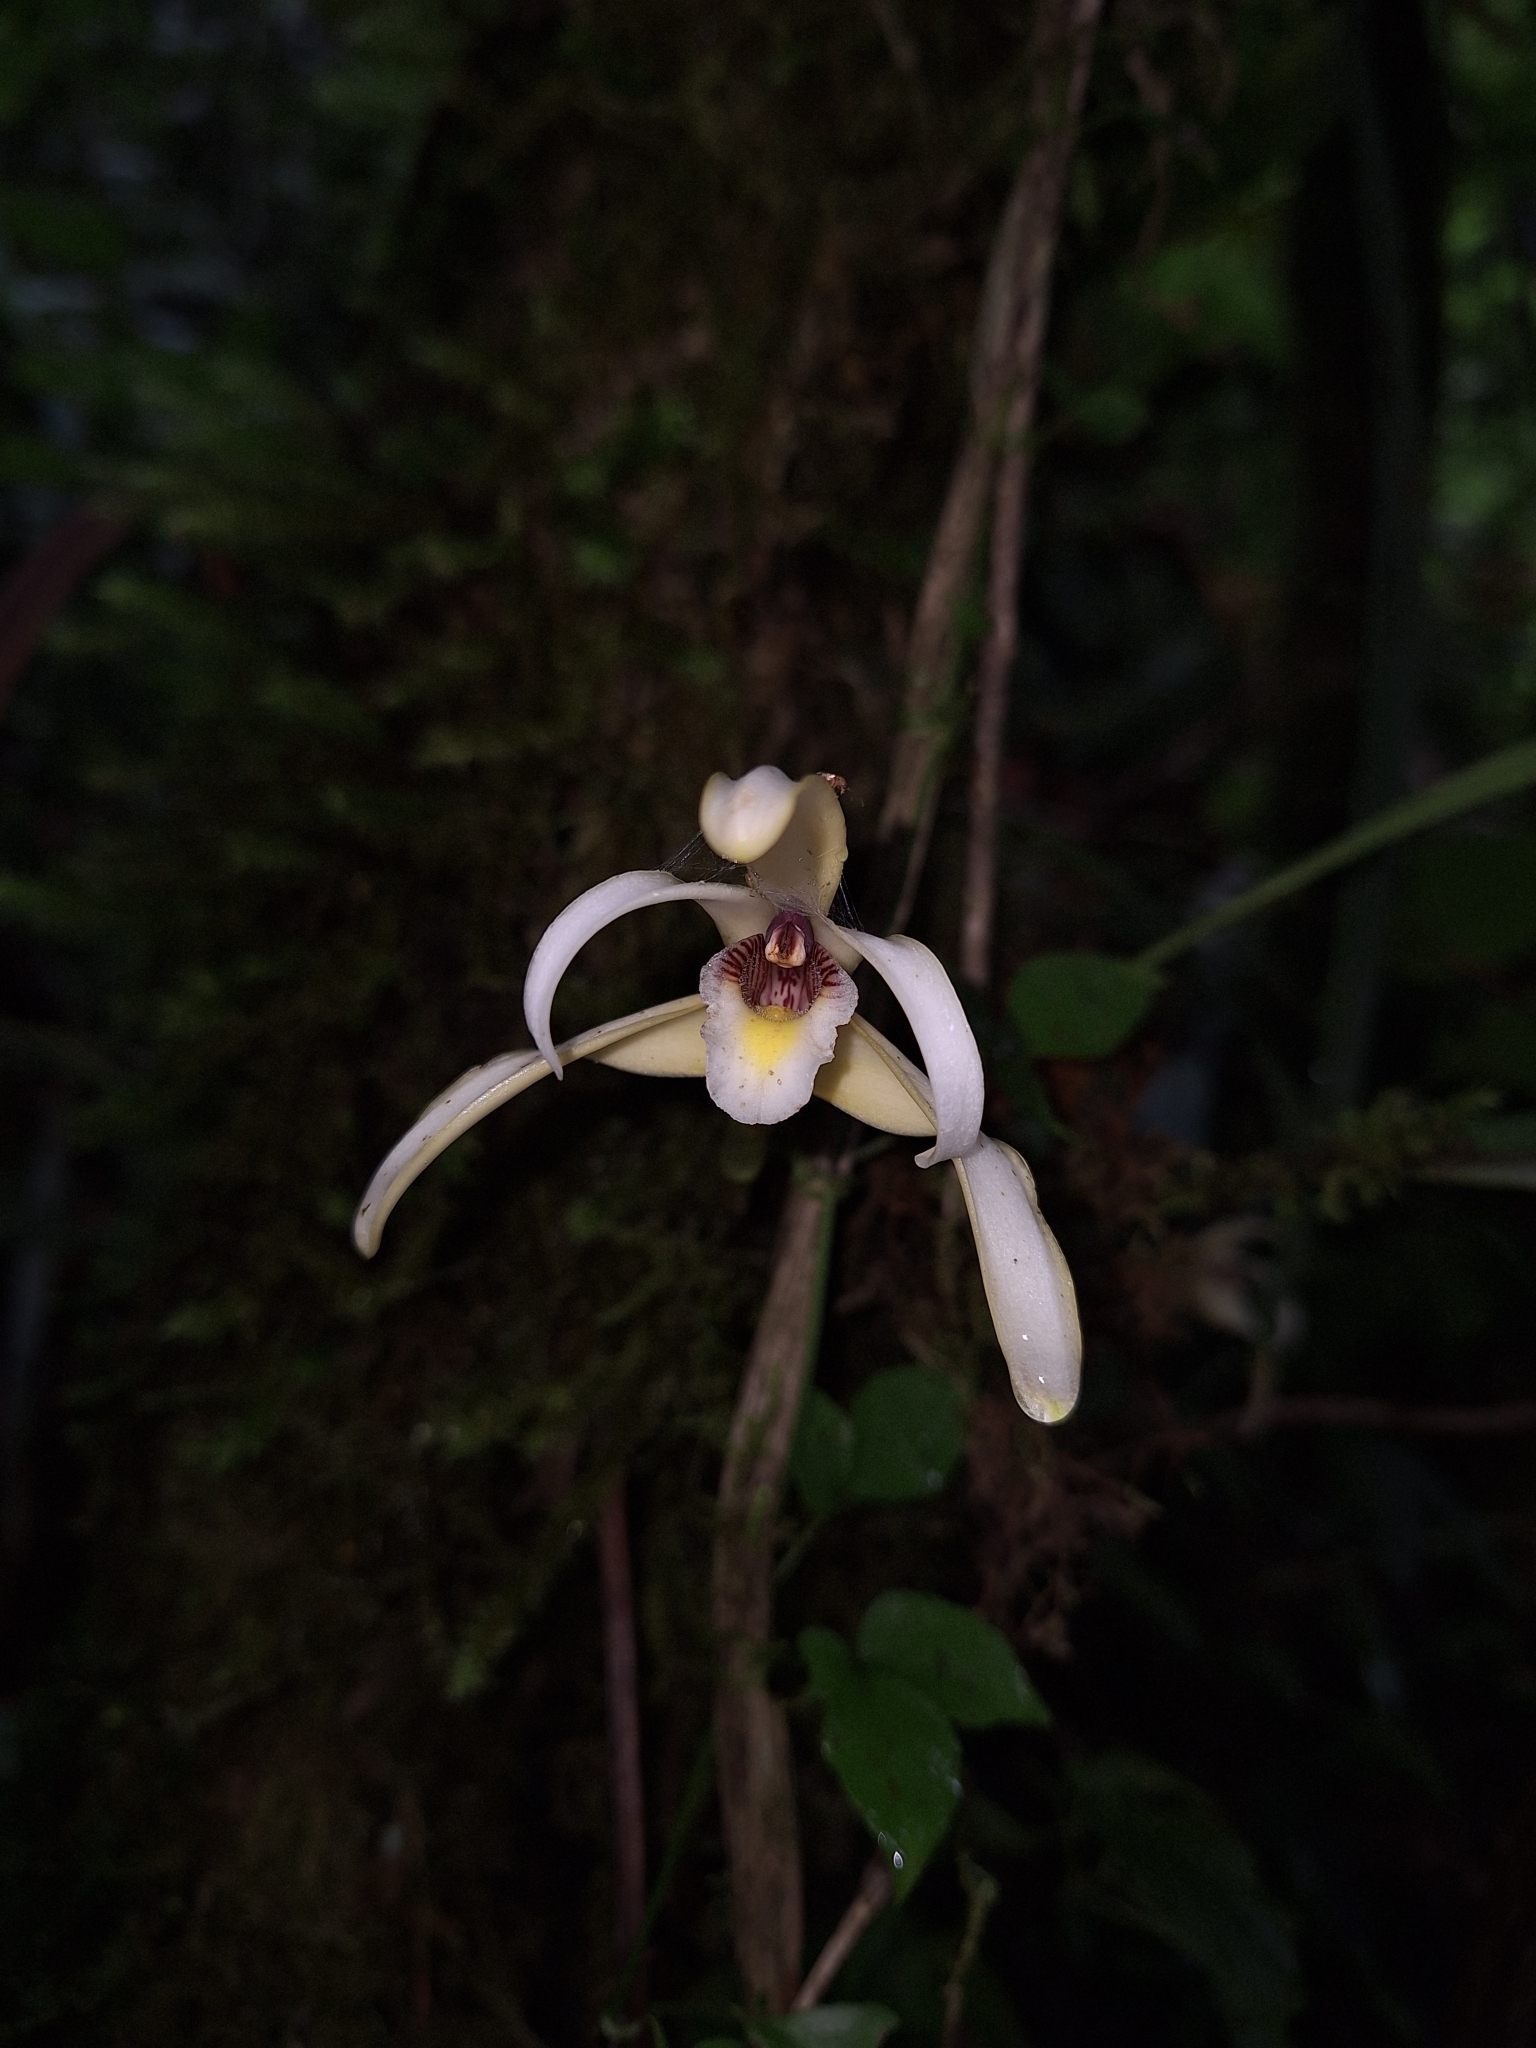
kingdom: Plantae
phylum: Tracheophyta
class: Liliopsida
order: Asparagales
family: Orchidaceae
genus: Maxillaria
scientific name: Maxillaria angustisegmenta
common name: Narrow segemented maxillaria
